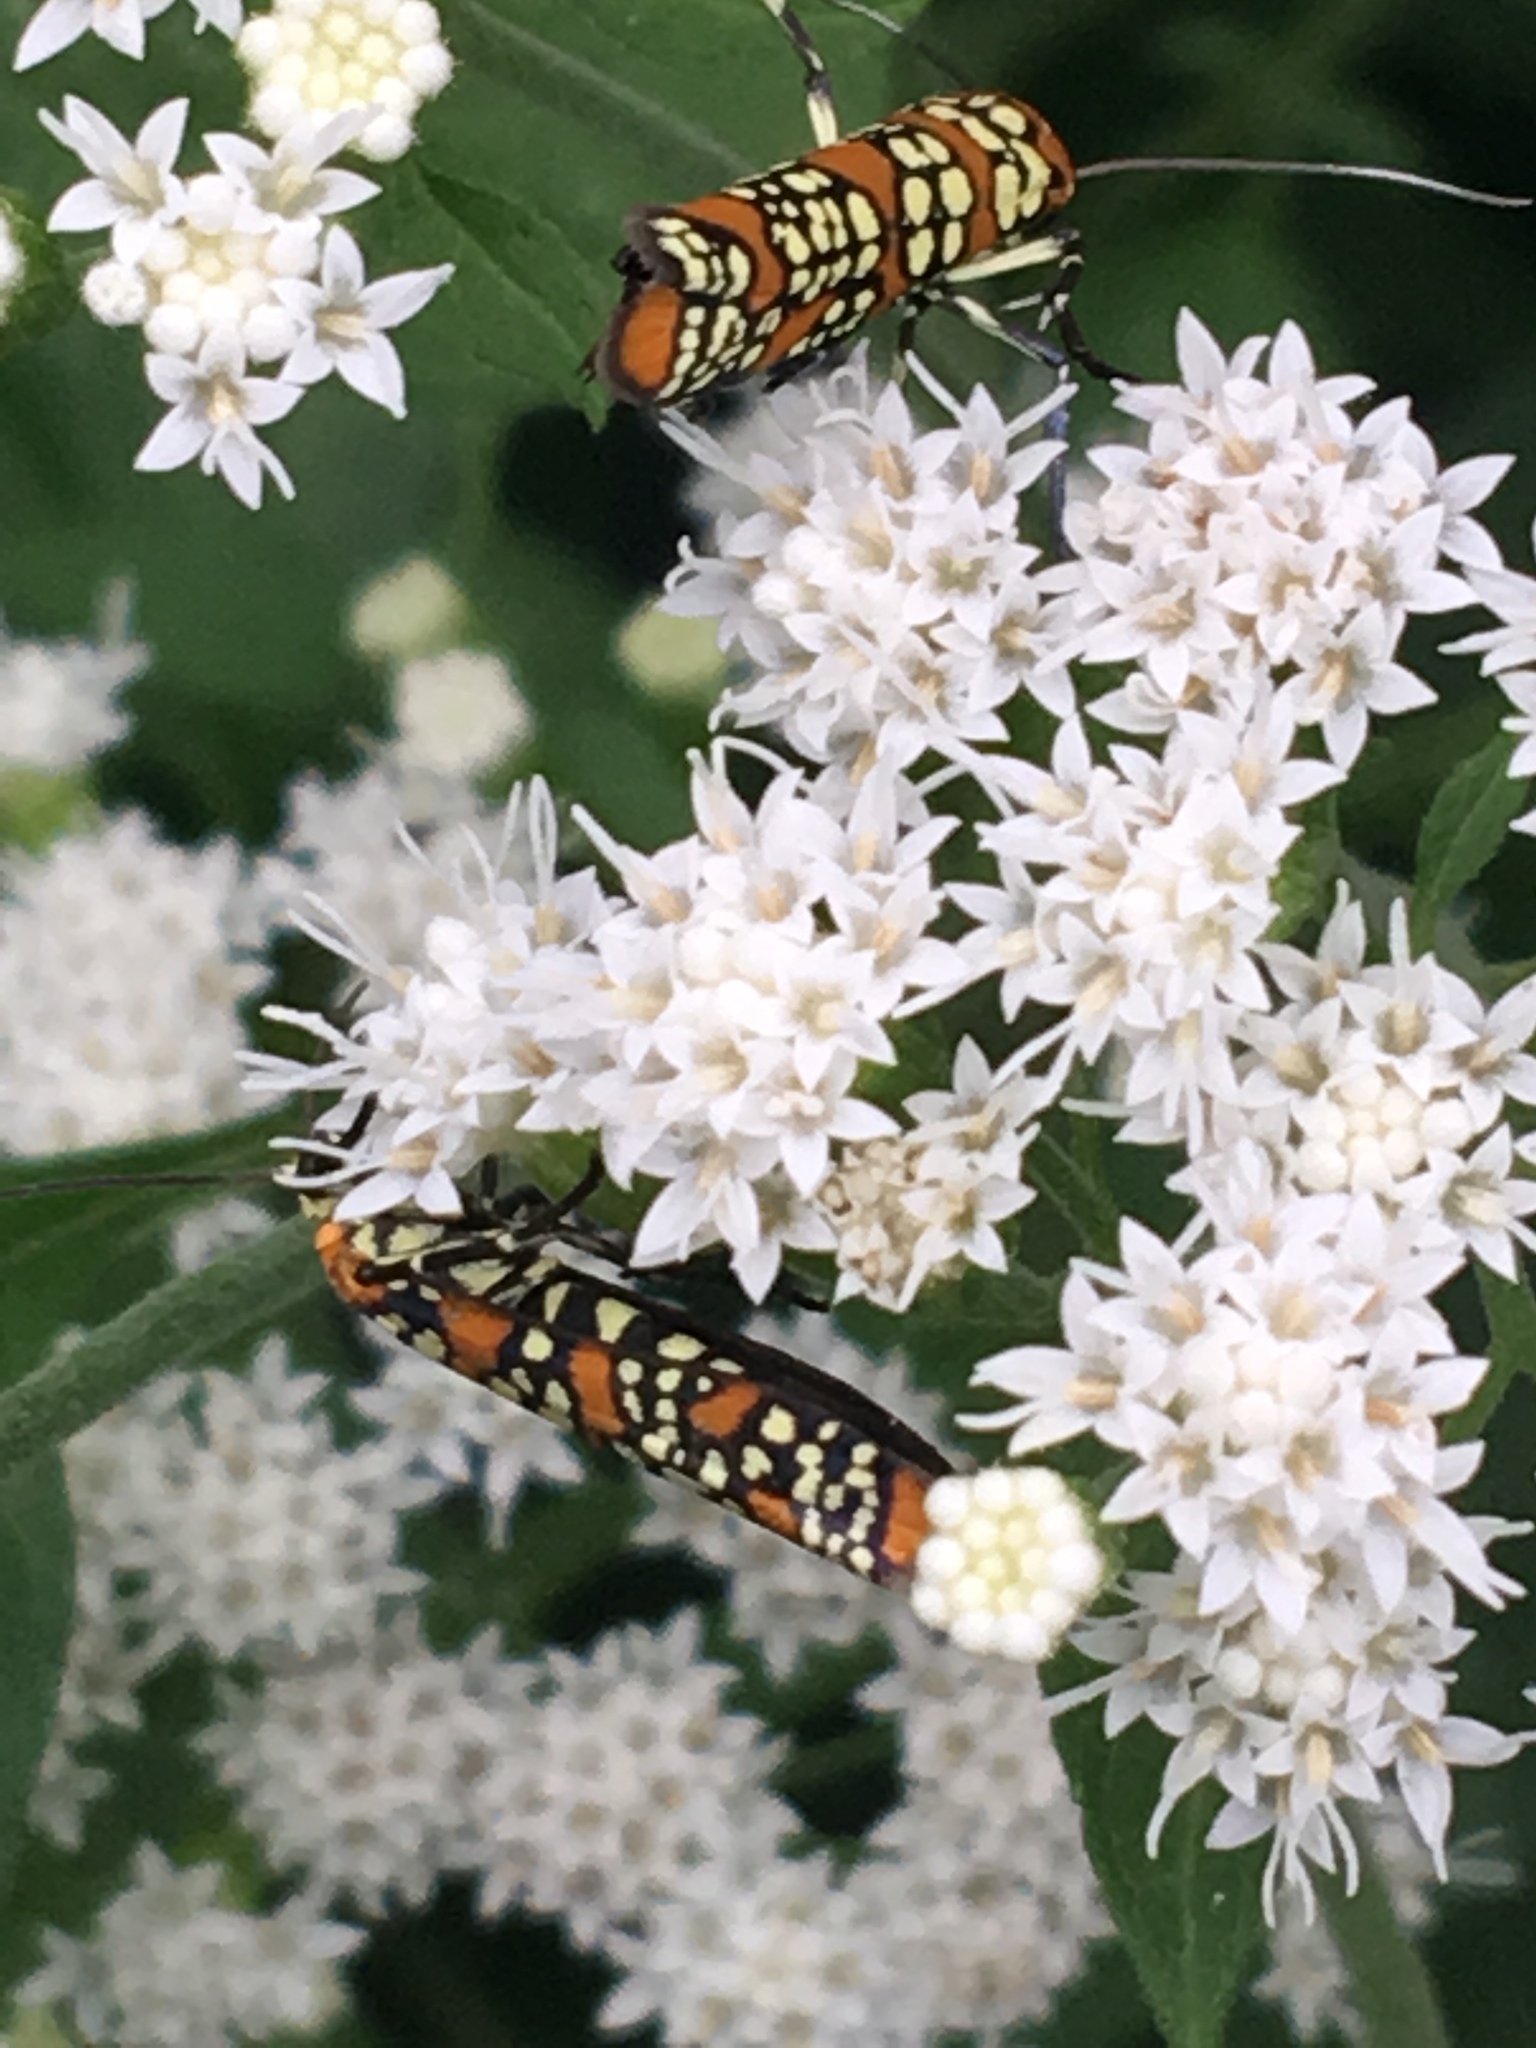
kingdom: Animalia
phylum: Arthropoda
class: Insecta
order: Lepidoptera
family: Attevidae
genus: Atteva
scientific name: Atteva punctella
